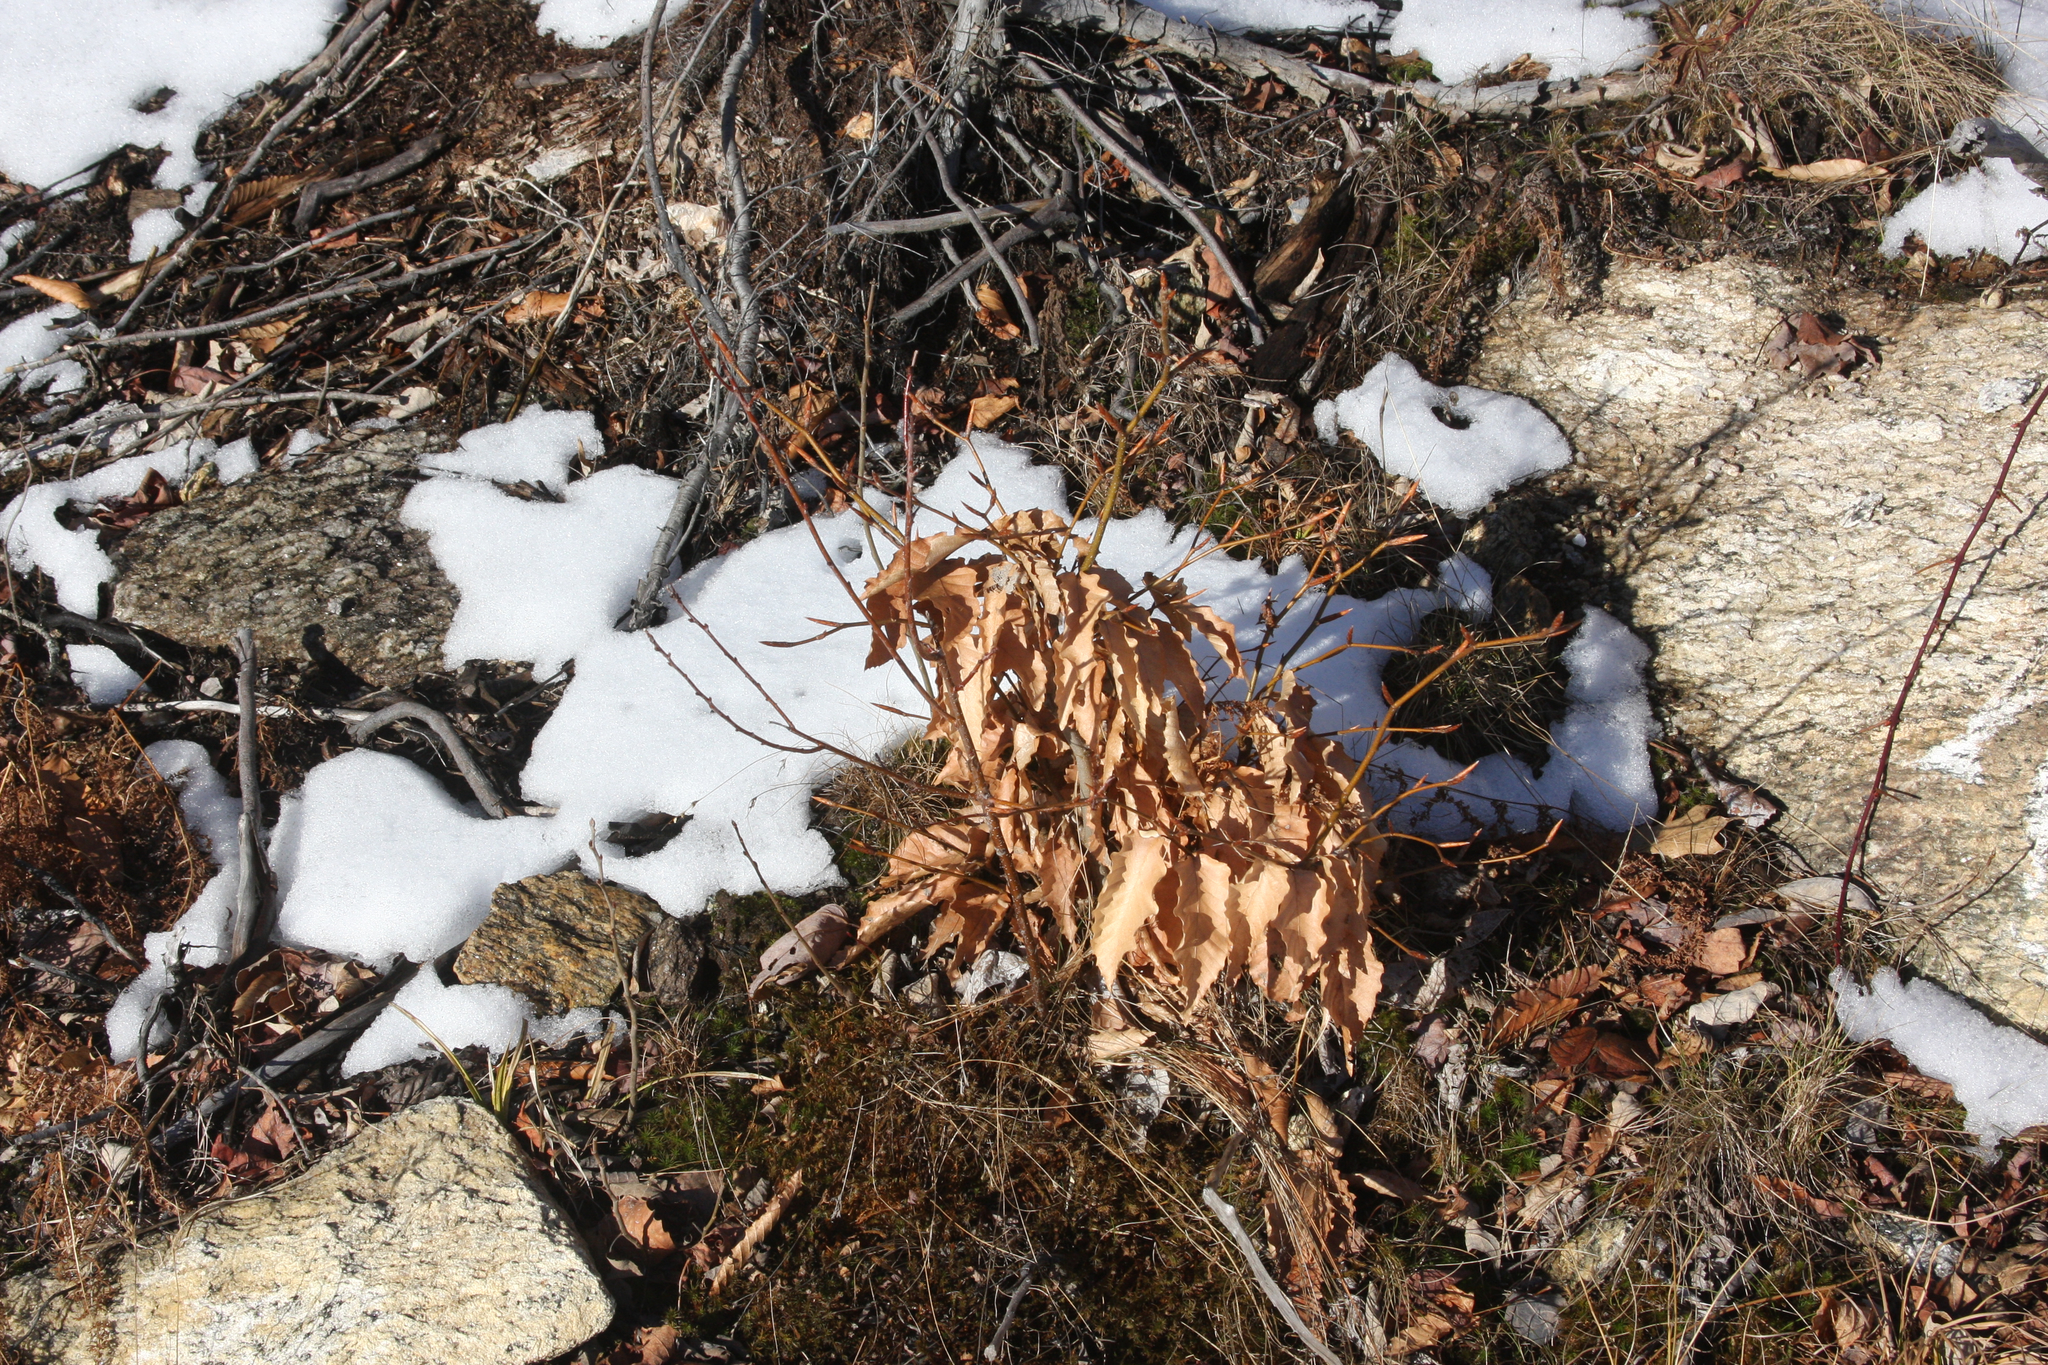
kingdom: Plantae
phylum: Tracheophyta
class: Magnoliopsida
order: Fagales
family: Fagaceae
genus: Fagus
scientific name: Fagus grandifolia
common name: American beech
